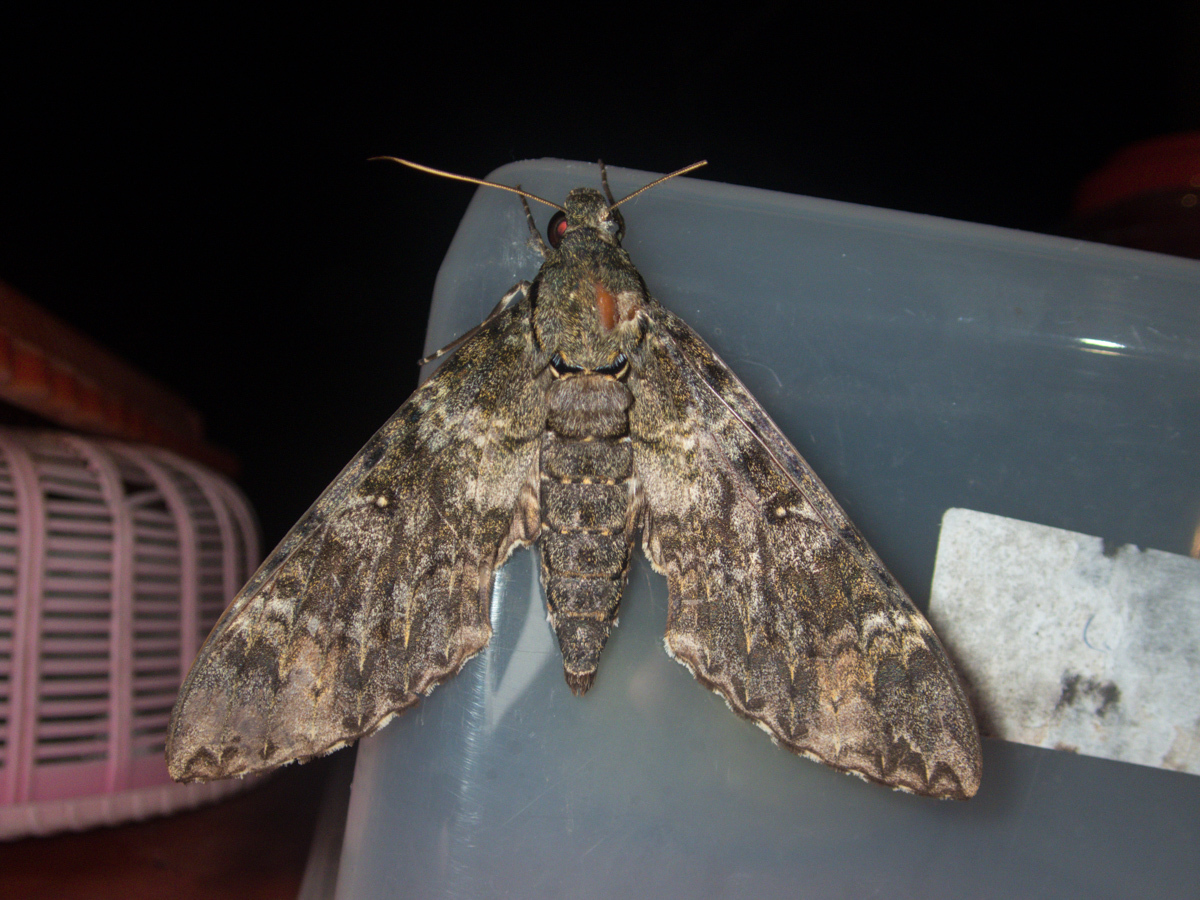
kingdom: Animalia
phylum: Arthropoda
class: Insecta
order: Lepidoptera
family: Sphingidae
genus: Meganoton
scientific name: Meganoton nyctiphanes
